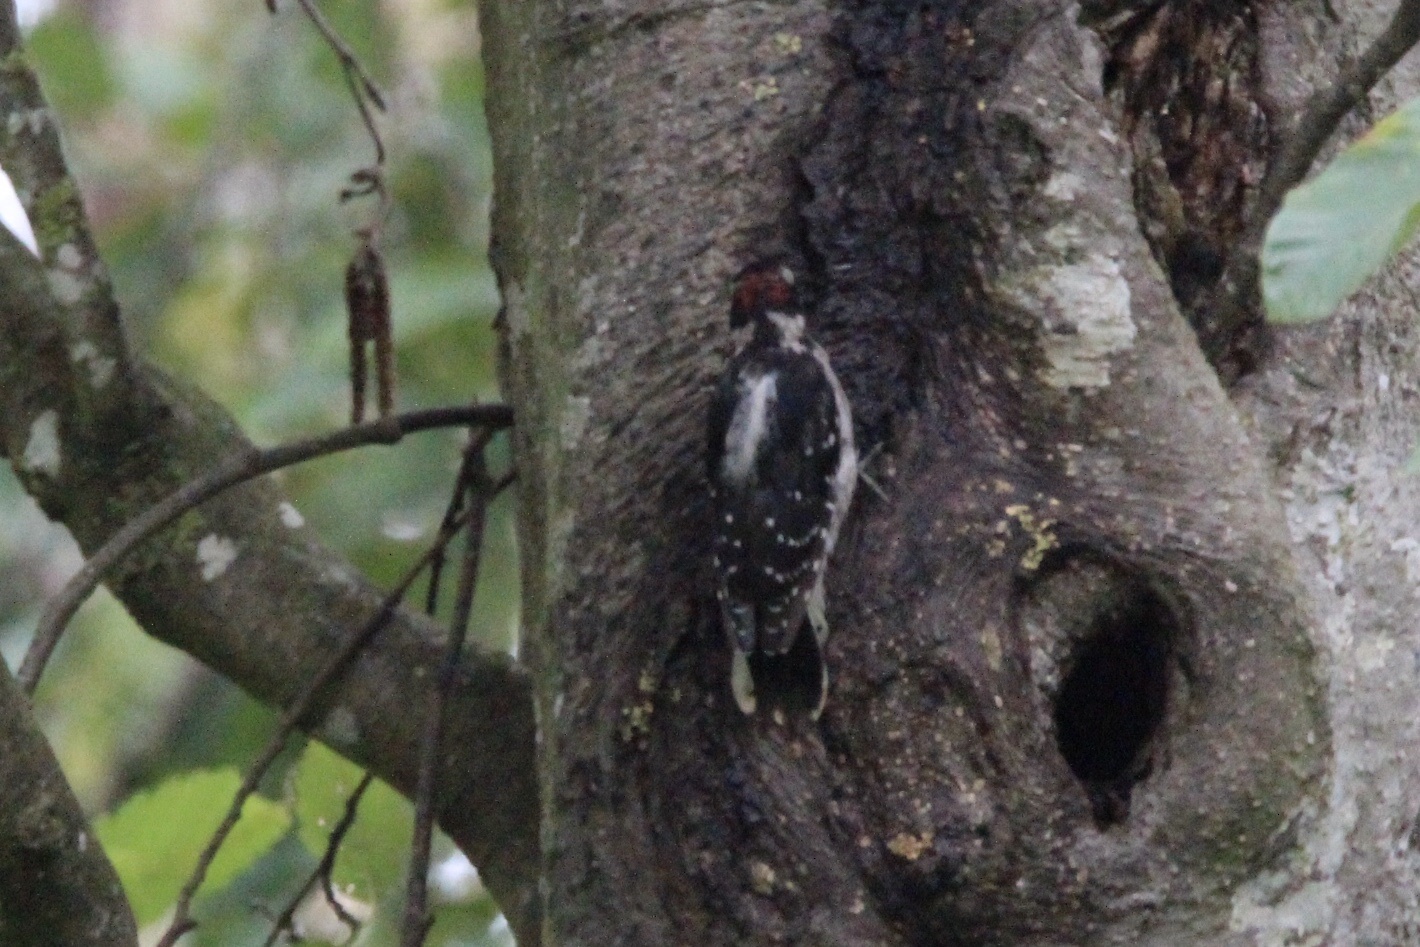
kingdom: Animalia
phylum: Chordata
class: Aves
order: Piciformes
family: Picidae
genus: Dryobates
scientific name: Dryobates pubescens
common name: Downy woodpecker
